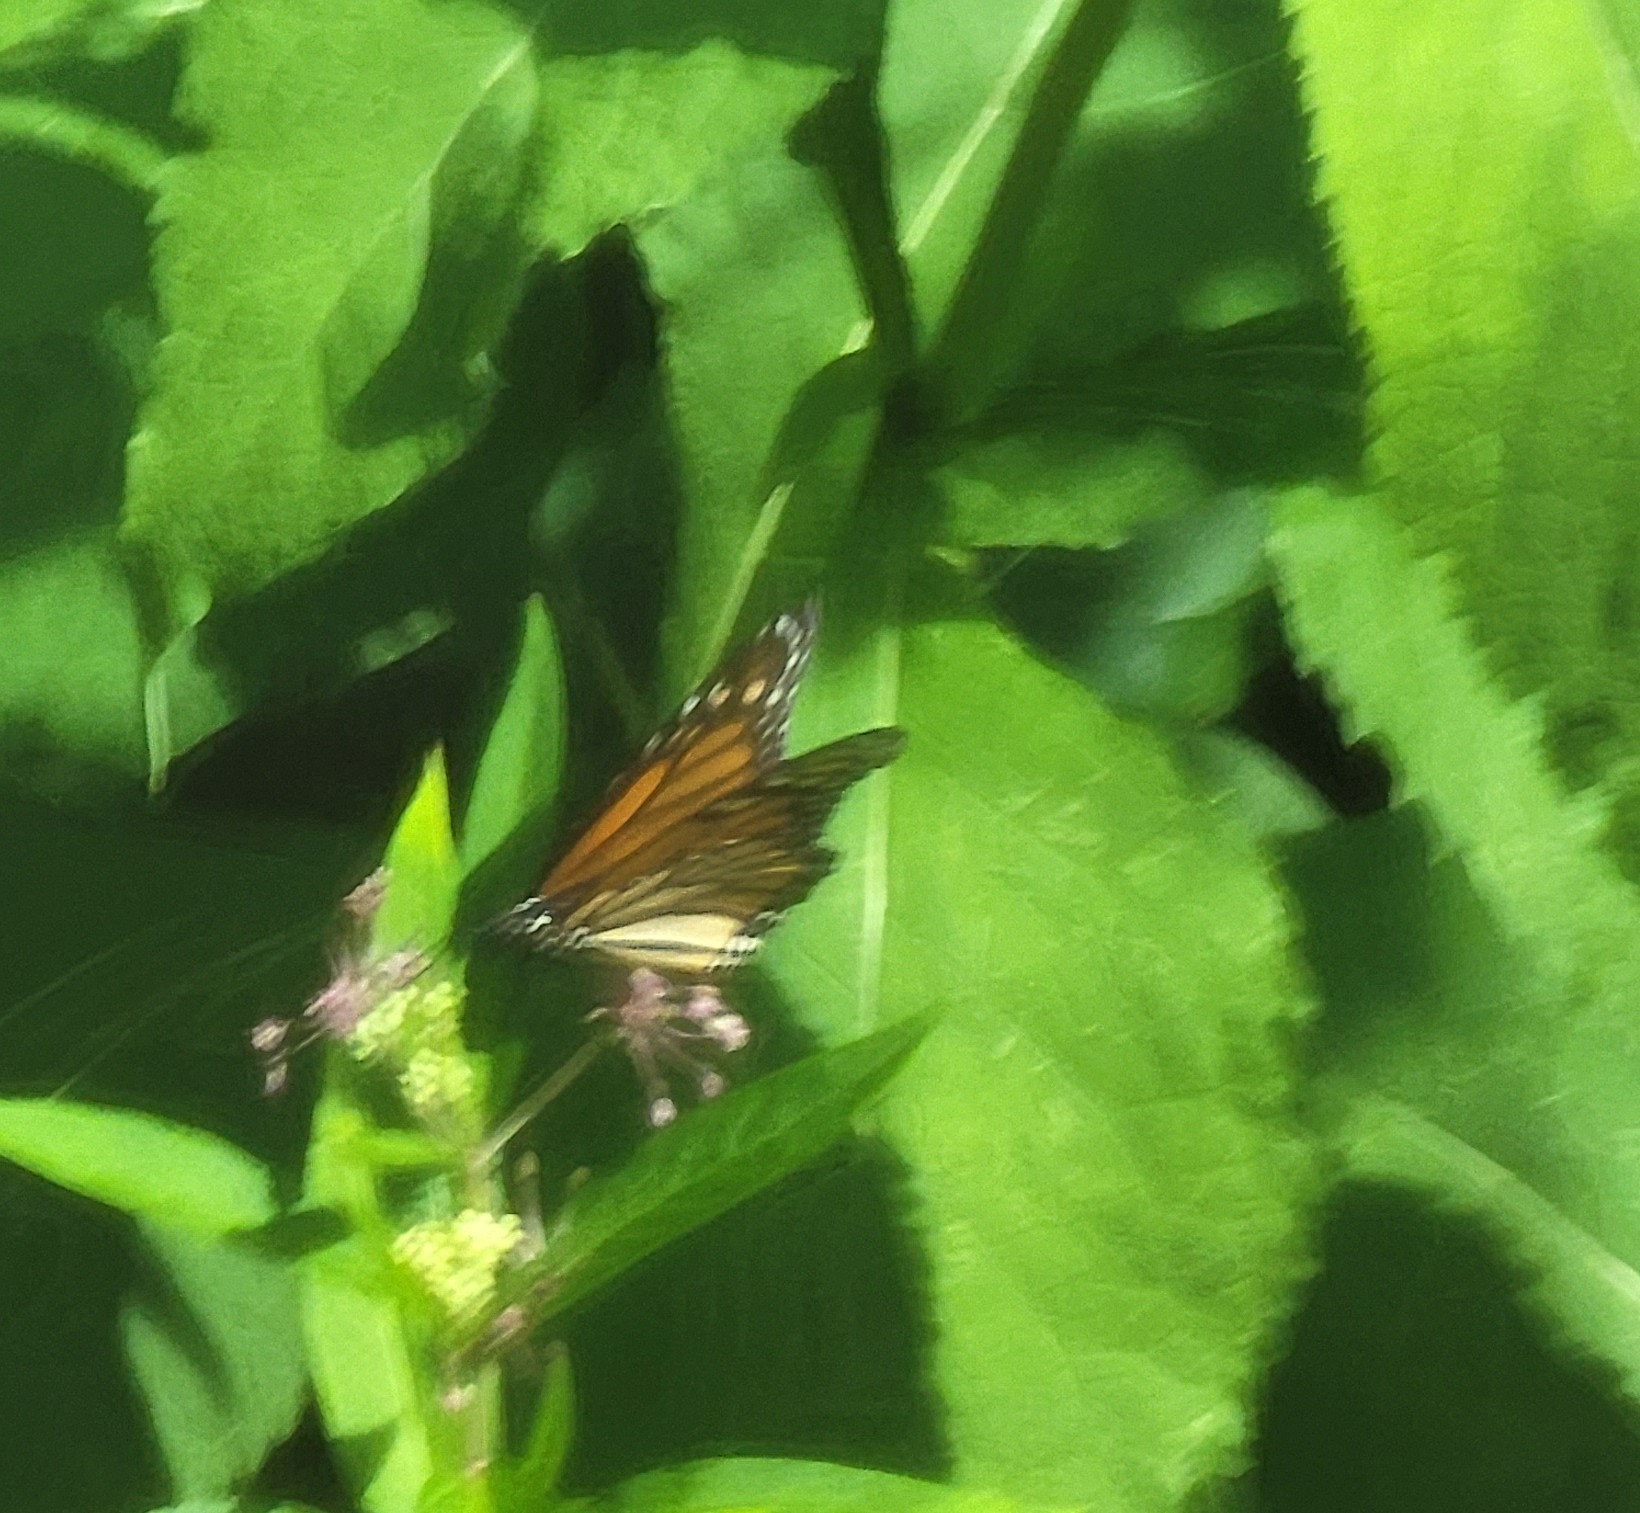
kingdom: Animalia
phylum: Arthropoda
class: Insecta
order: Lepidoptera
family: Nymphalidae
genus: Danaus
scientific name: Danaus plexippus
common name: Monarch
